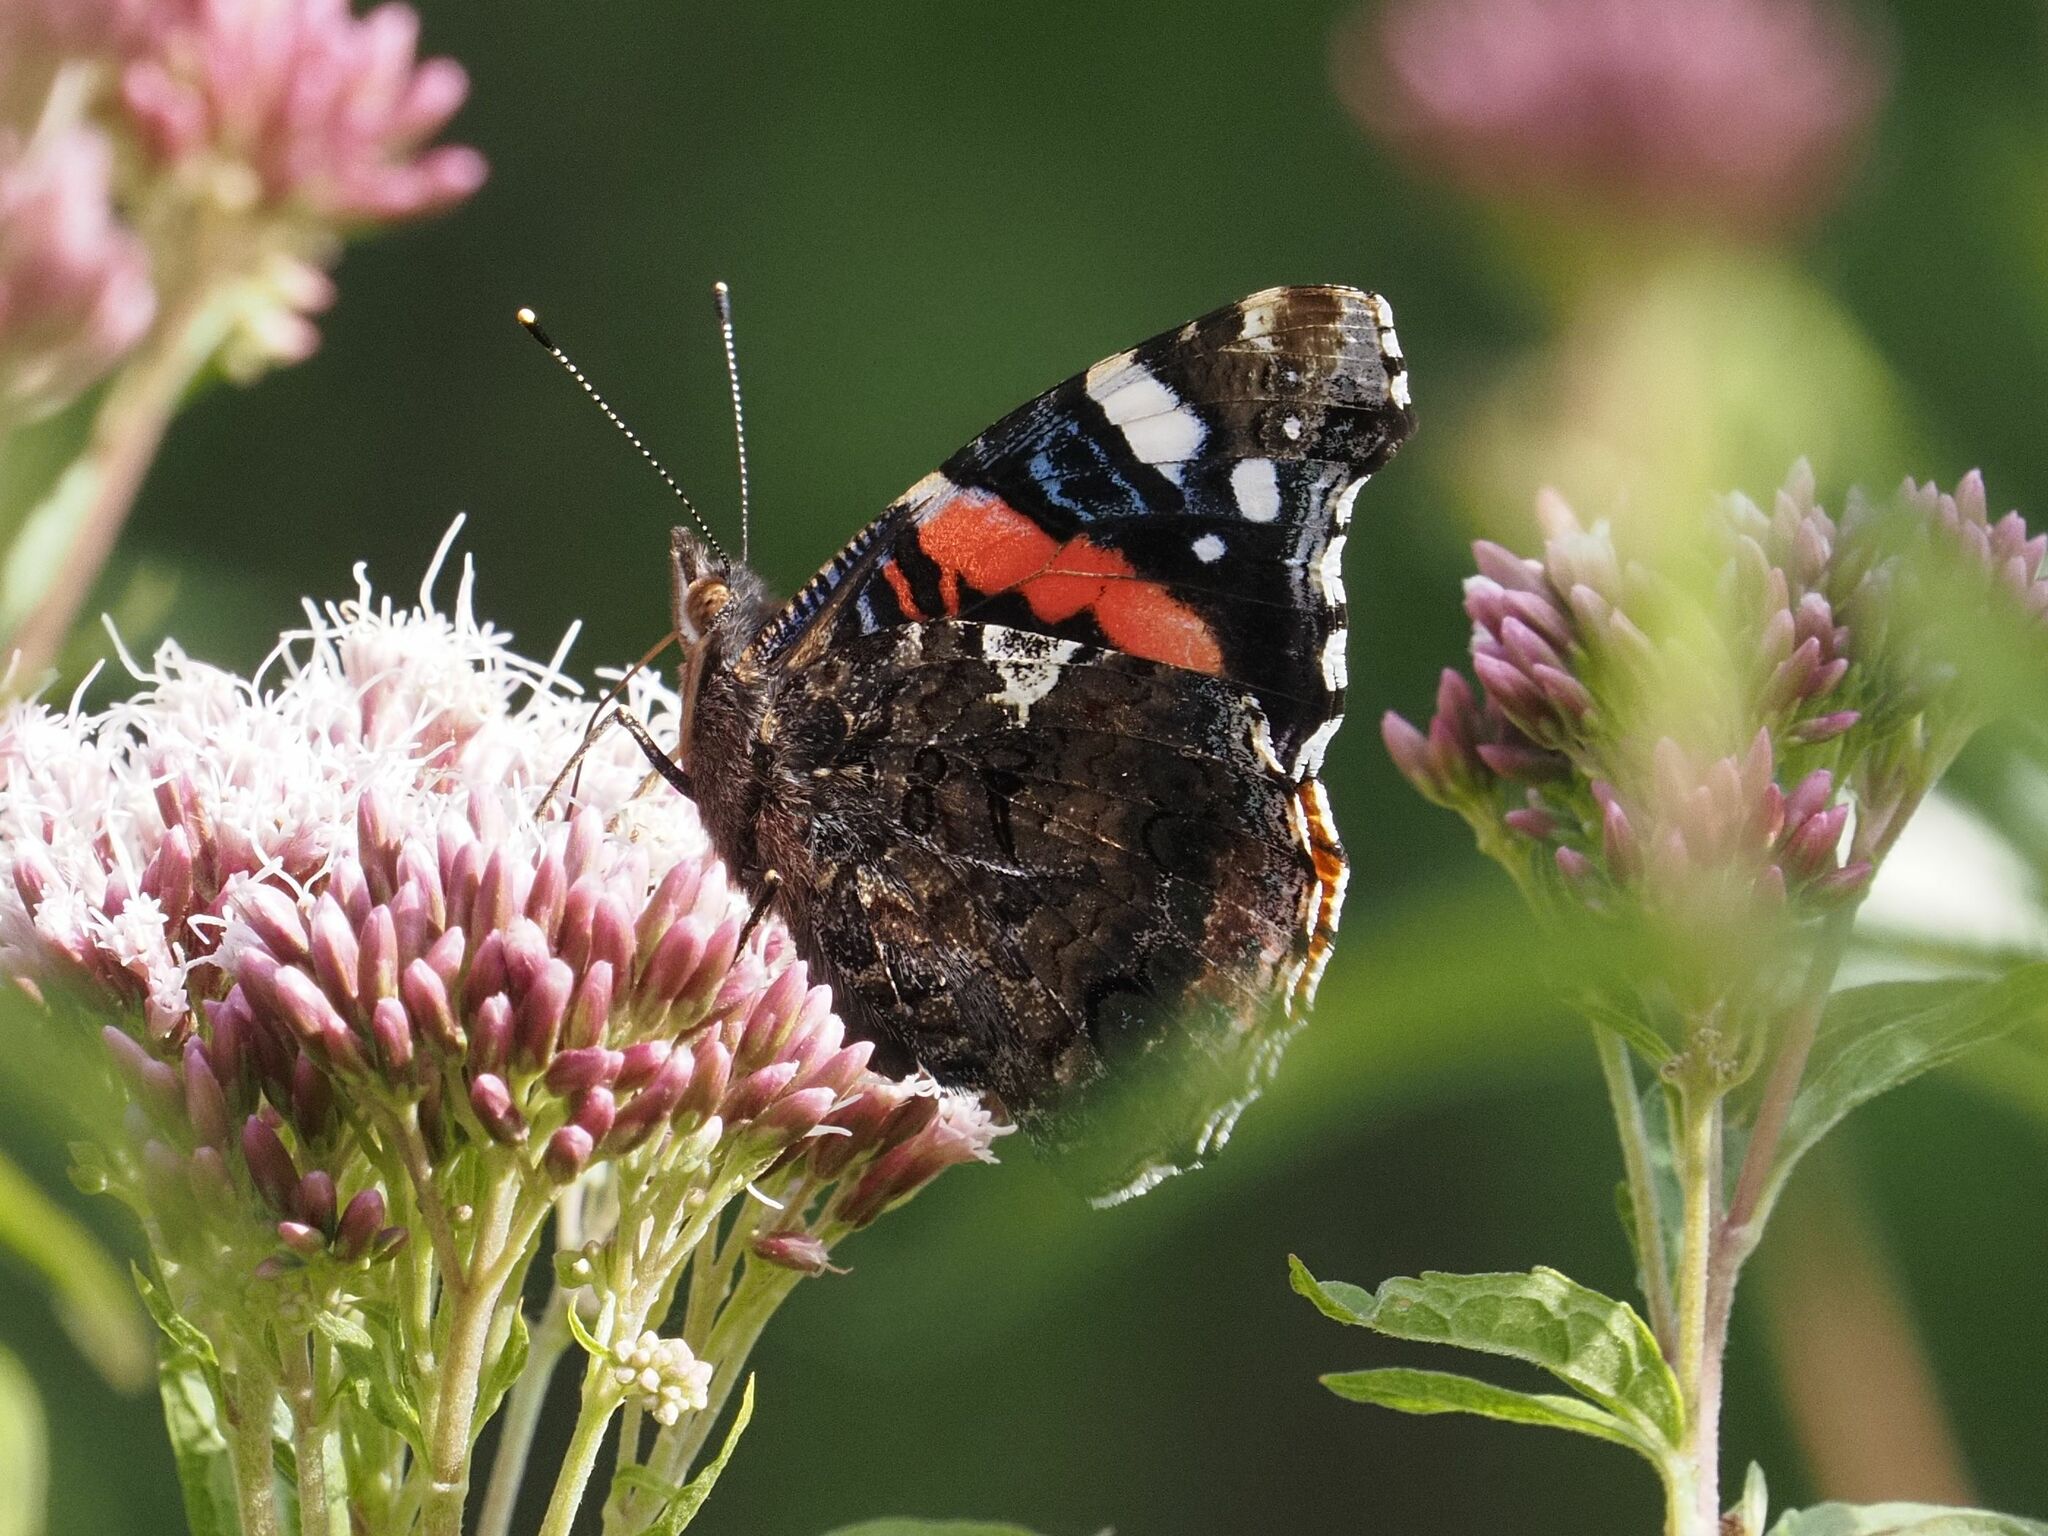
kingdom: Animalia
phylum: Arthropoda
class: Insecta
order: Lepidoptera
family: Nymphalidae
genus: Vanessa
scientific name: Vanessa atalanta
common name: Red admiral
